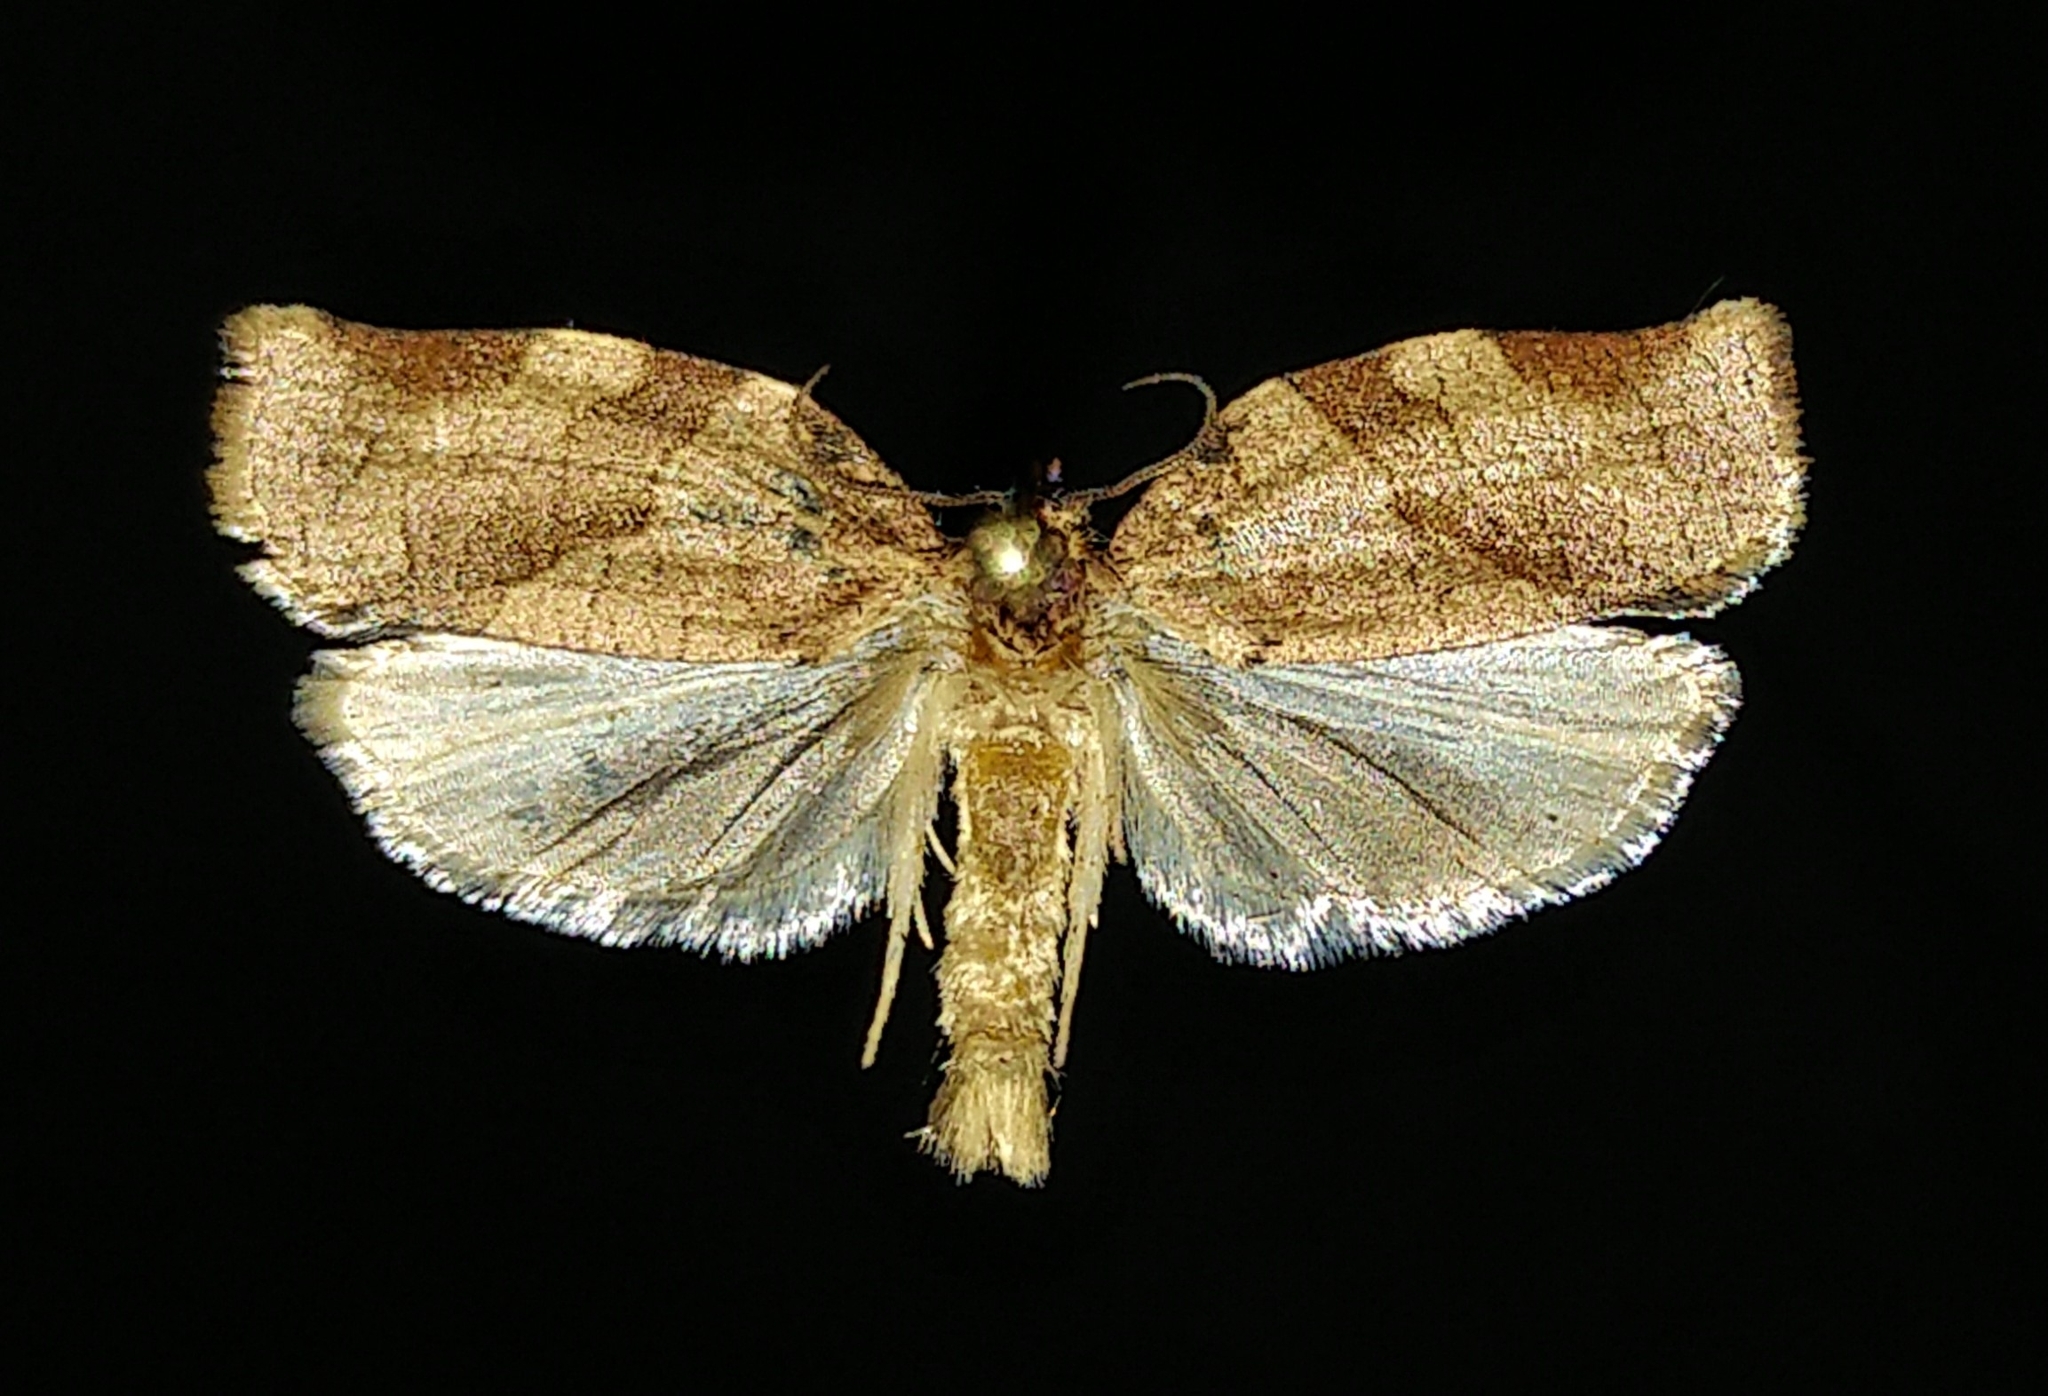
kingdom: Animalia
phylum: Arthropoda
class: Insecta
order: Lepidoptera
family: Tortricidae
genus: Choristoneura
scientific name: Choristoneura rosaceana
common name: Oblique-banded leafroller moth
